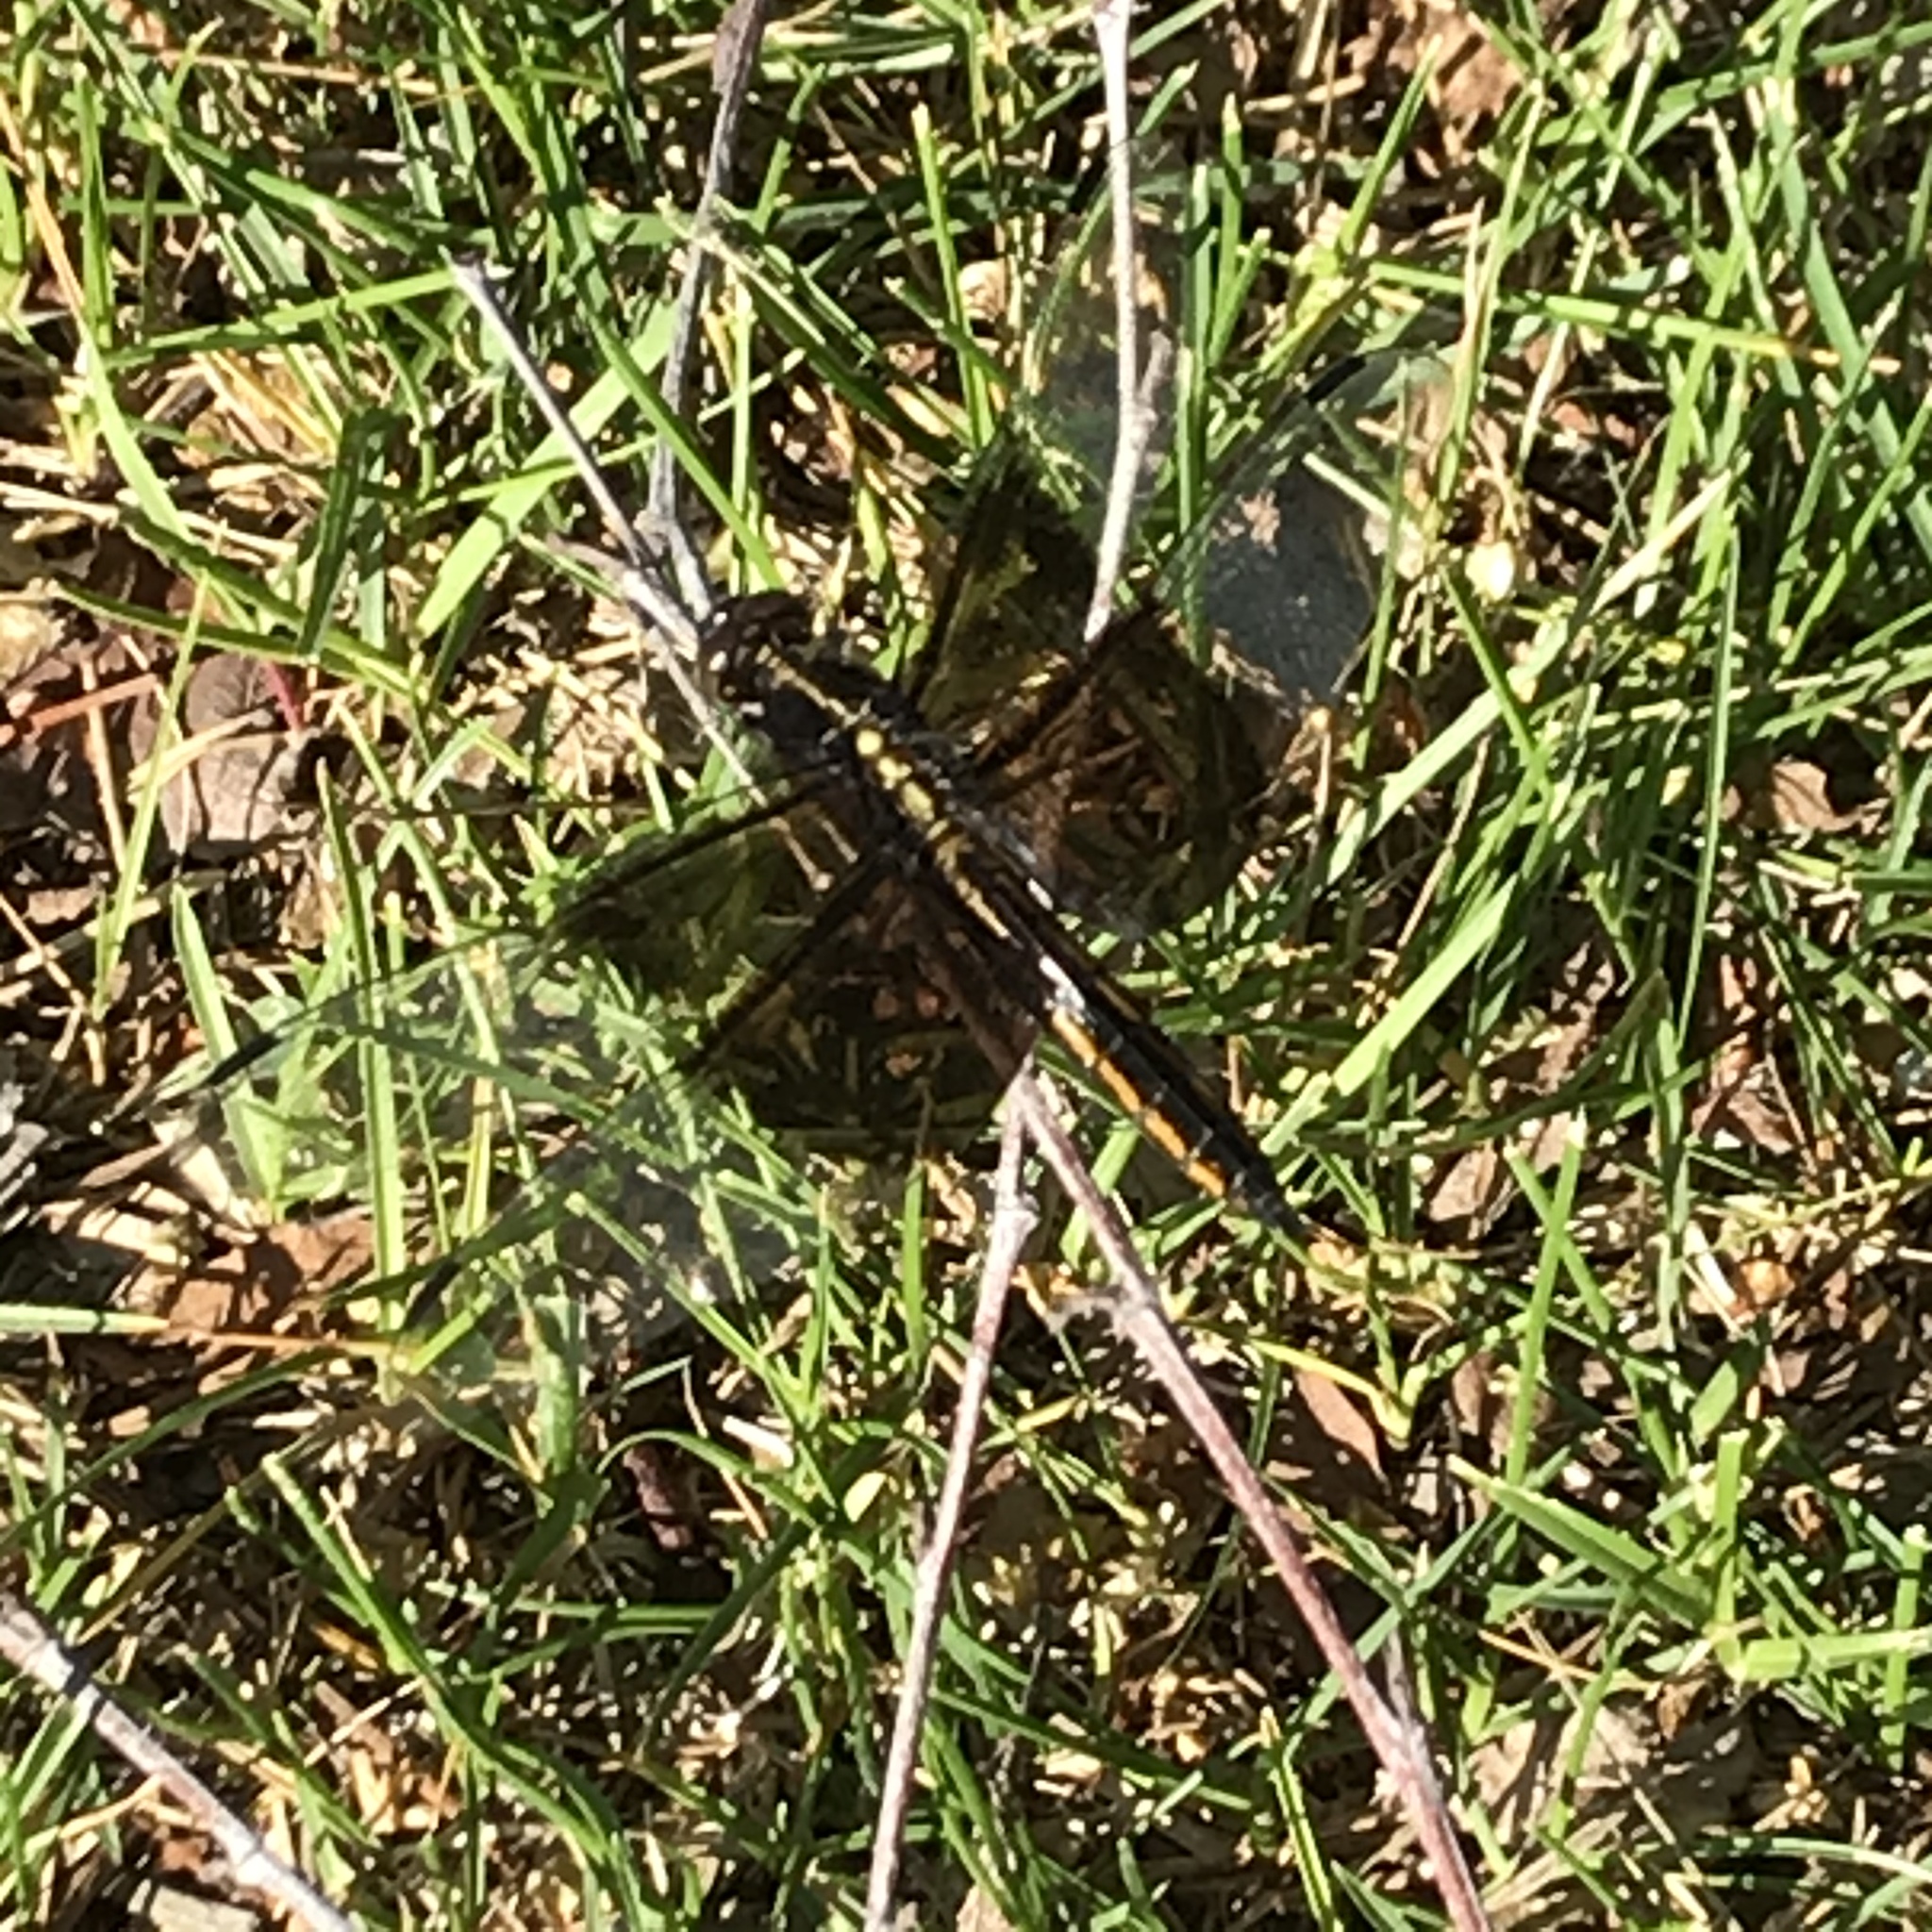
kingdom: Animalia
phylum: Arthropoda
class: Insecta
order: Odonata
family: Libellulidae
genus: Libellula
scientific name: Libellula luctuosa
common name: Widow skimmer
